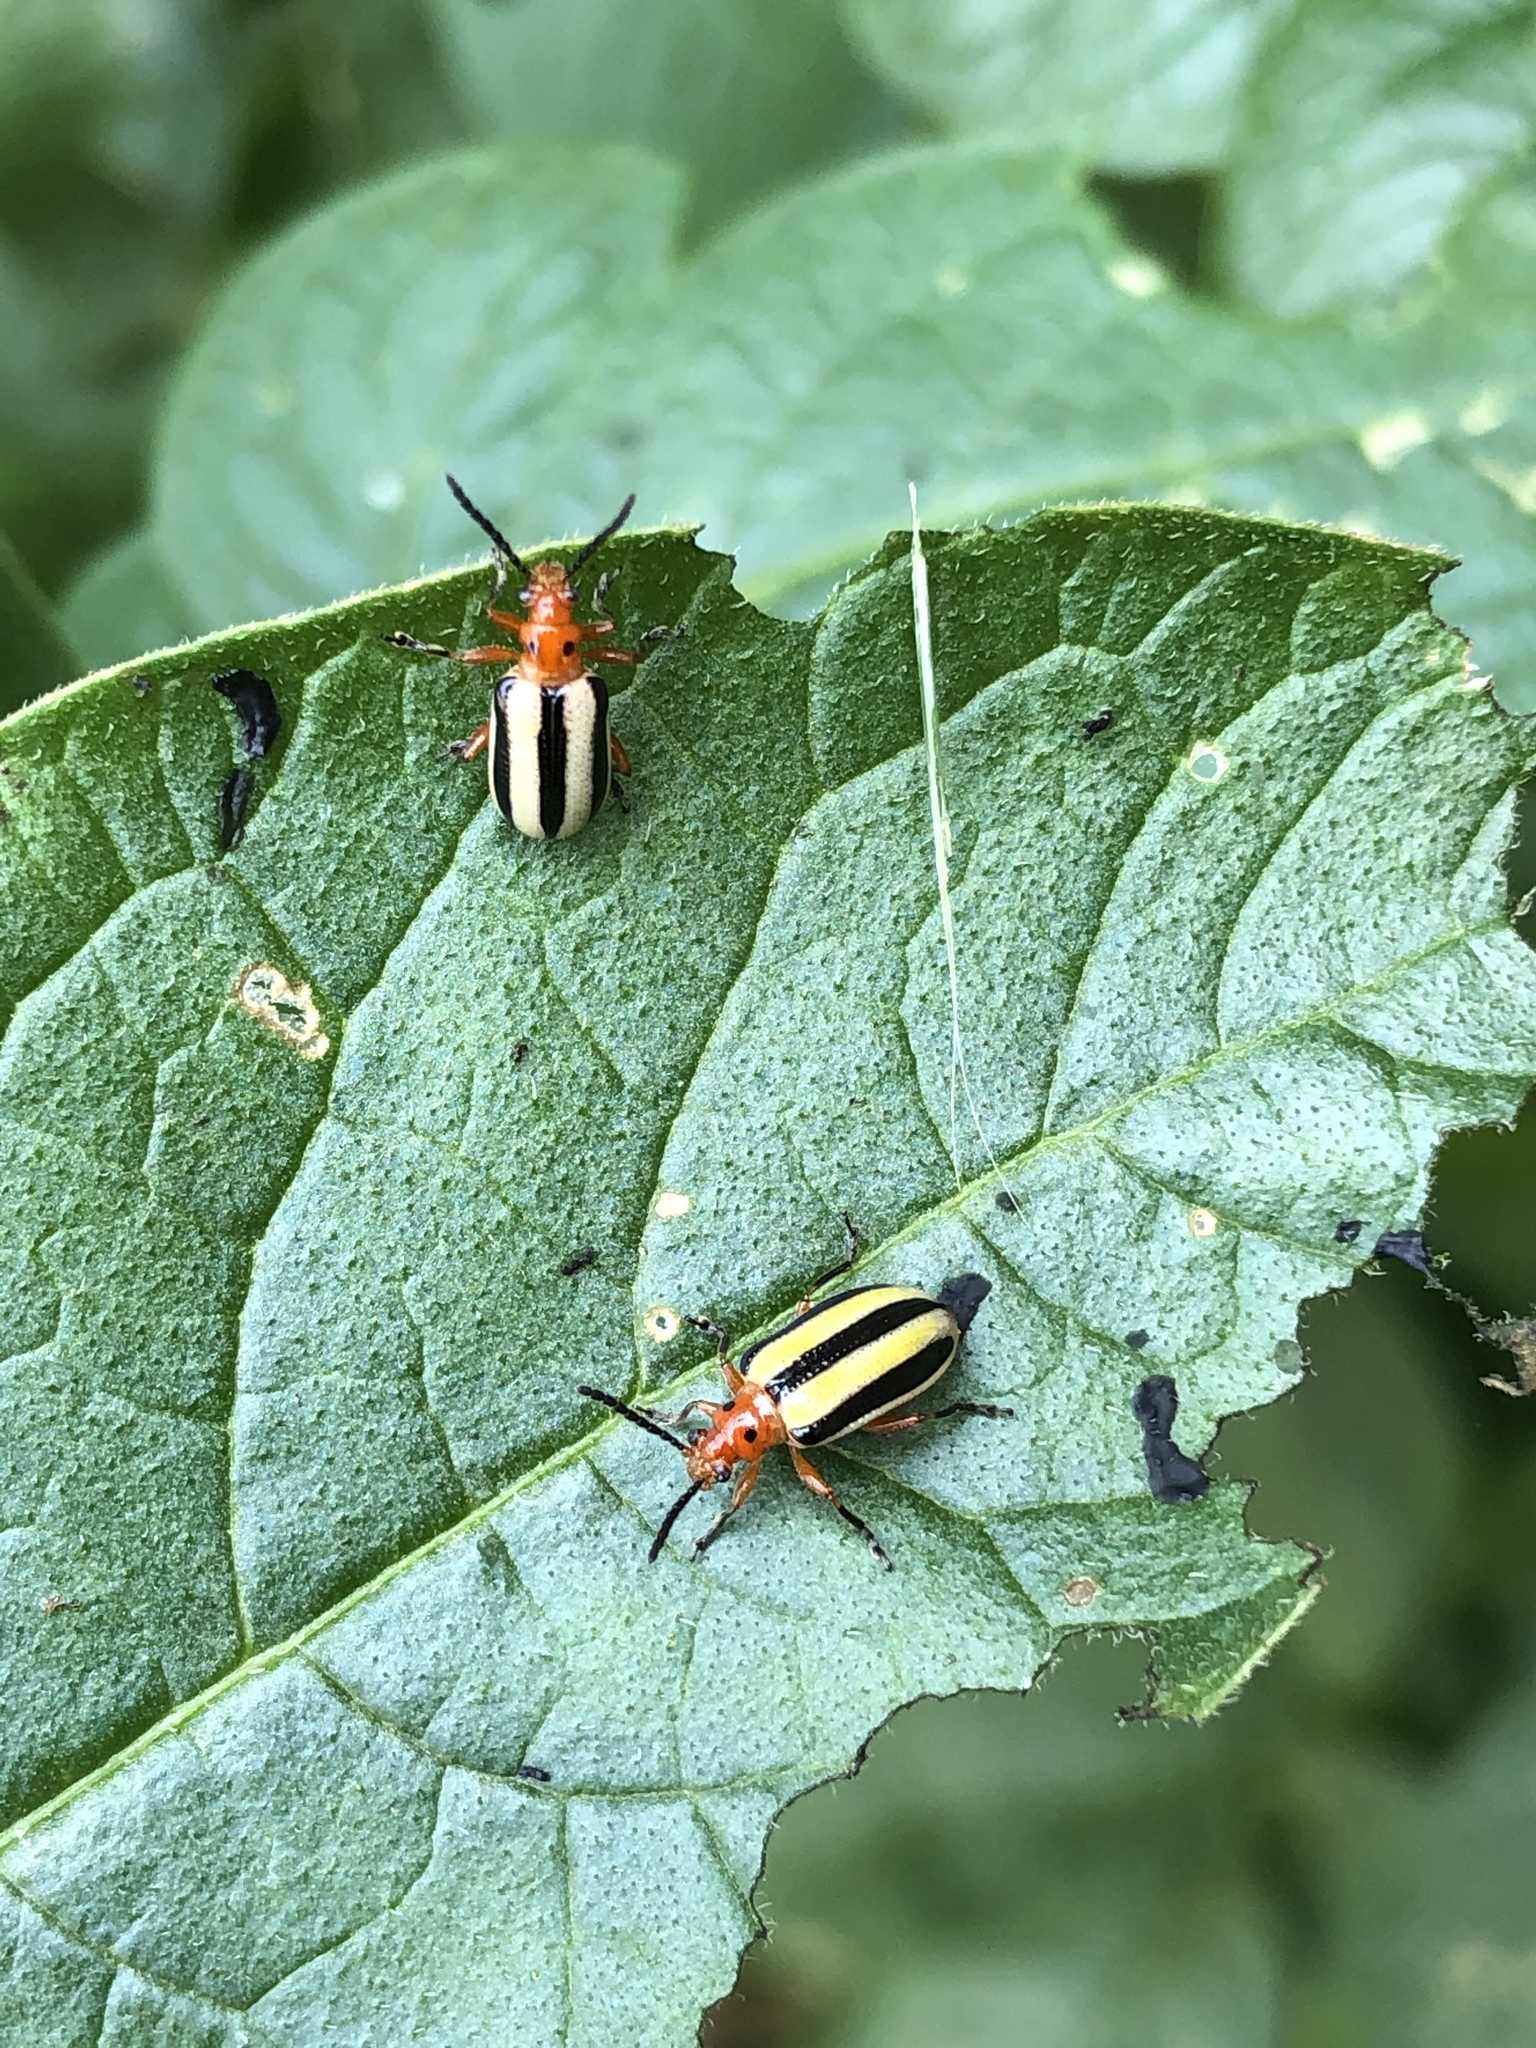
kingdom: Animalia
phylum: Arthropoda
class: Insecta
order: Coleoptera
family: Chrysomelidae
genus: Lema
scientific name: Lema daturaphila
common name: Leaf beetle
